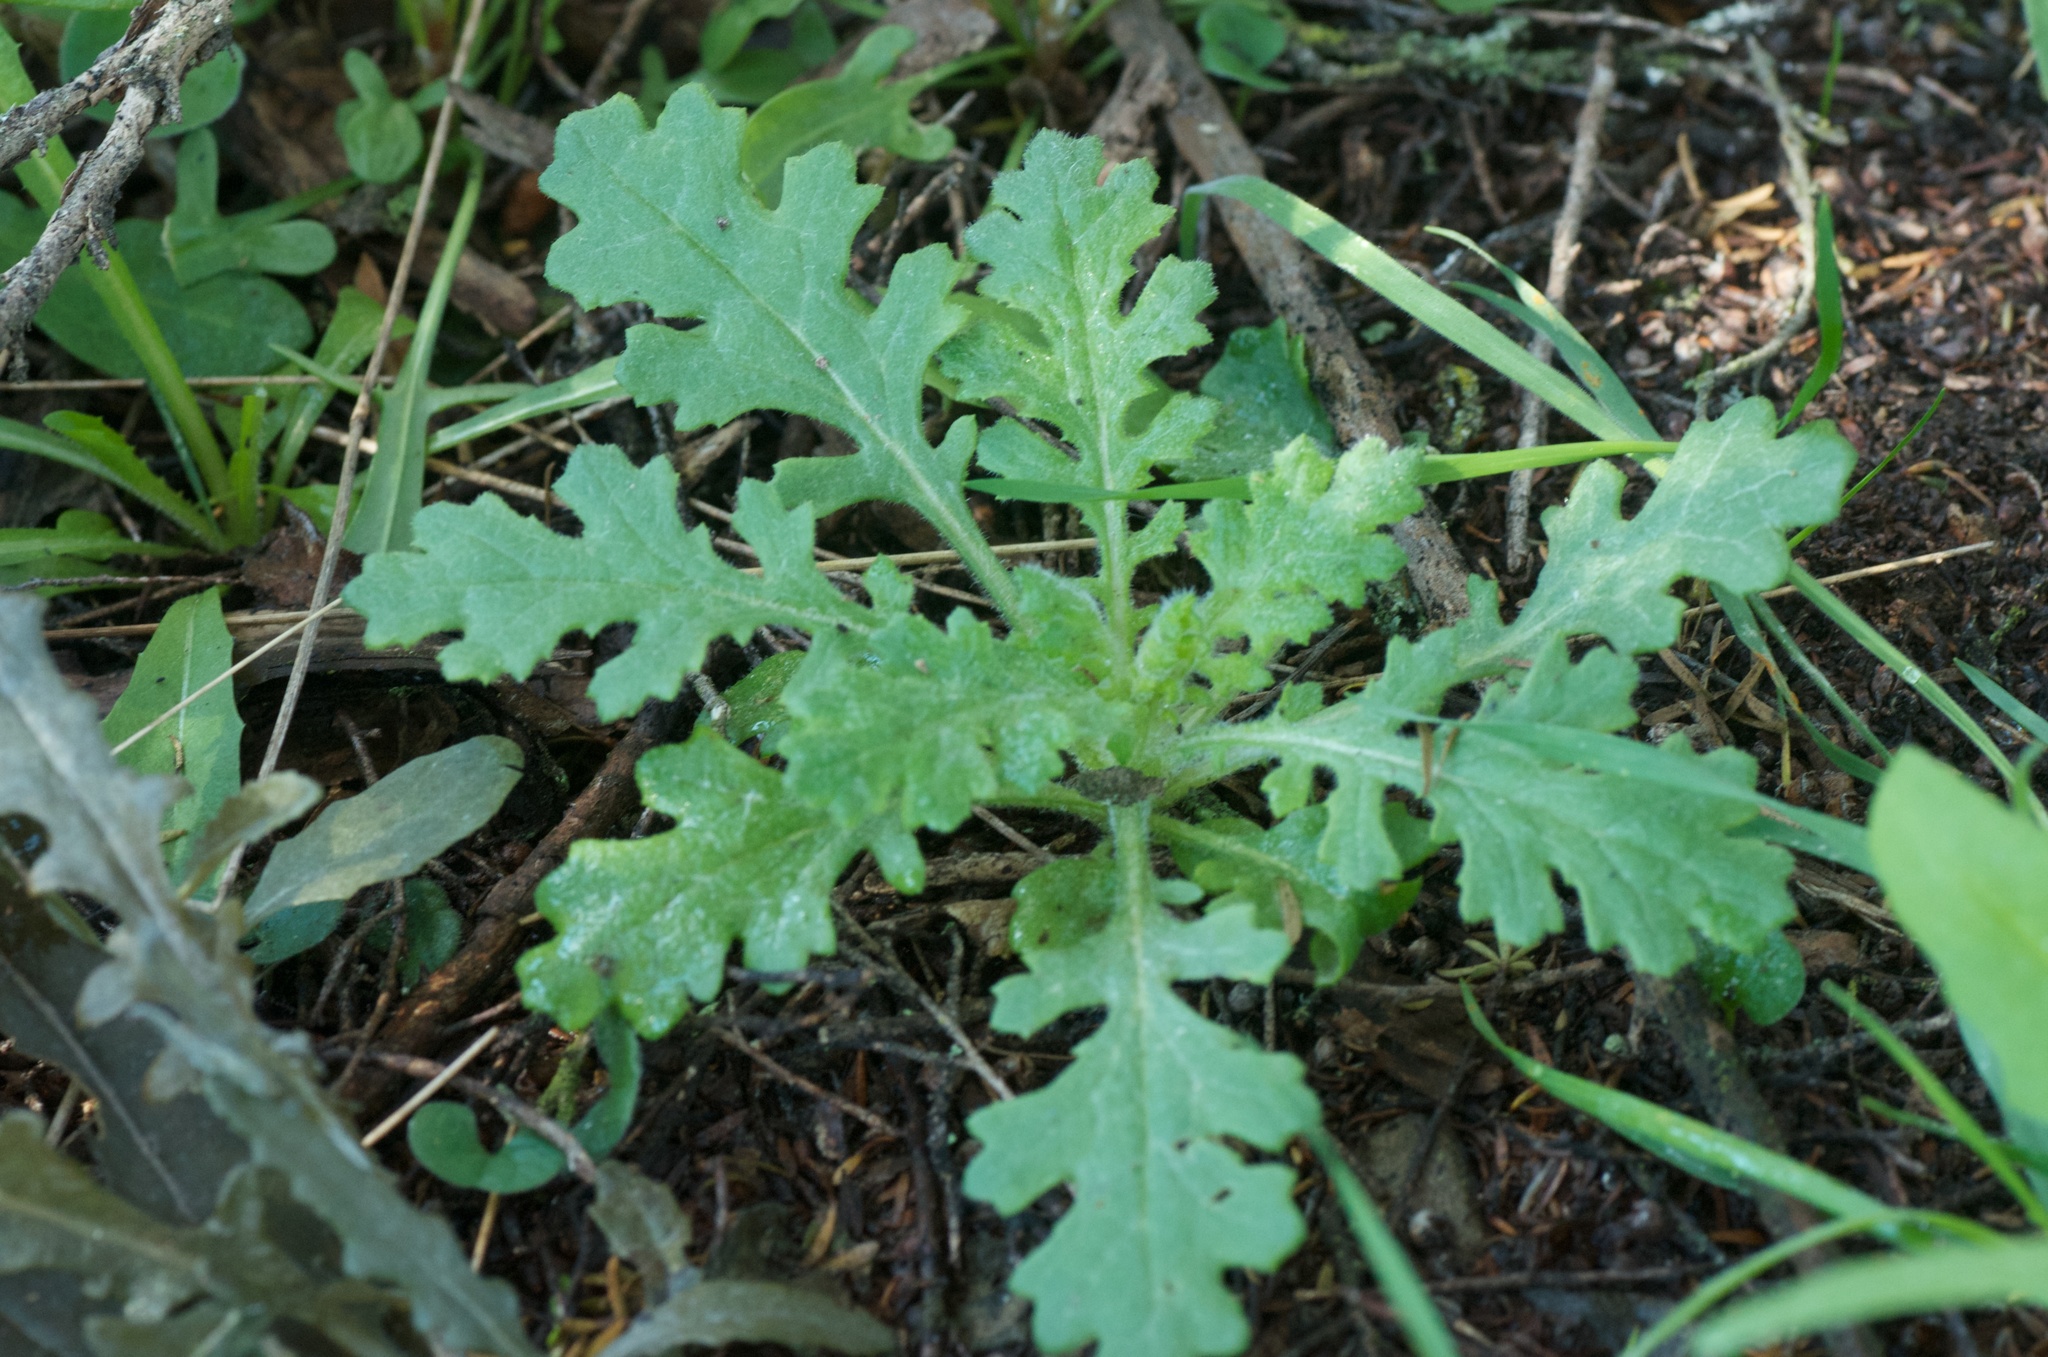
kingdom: Plantae
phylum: Tracheophyta
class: Magnoliopsida
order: Asterales
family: Asteraceae
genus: Senecio
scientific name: Senecio sylvaticus
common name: Woodland ragwort
